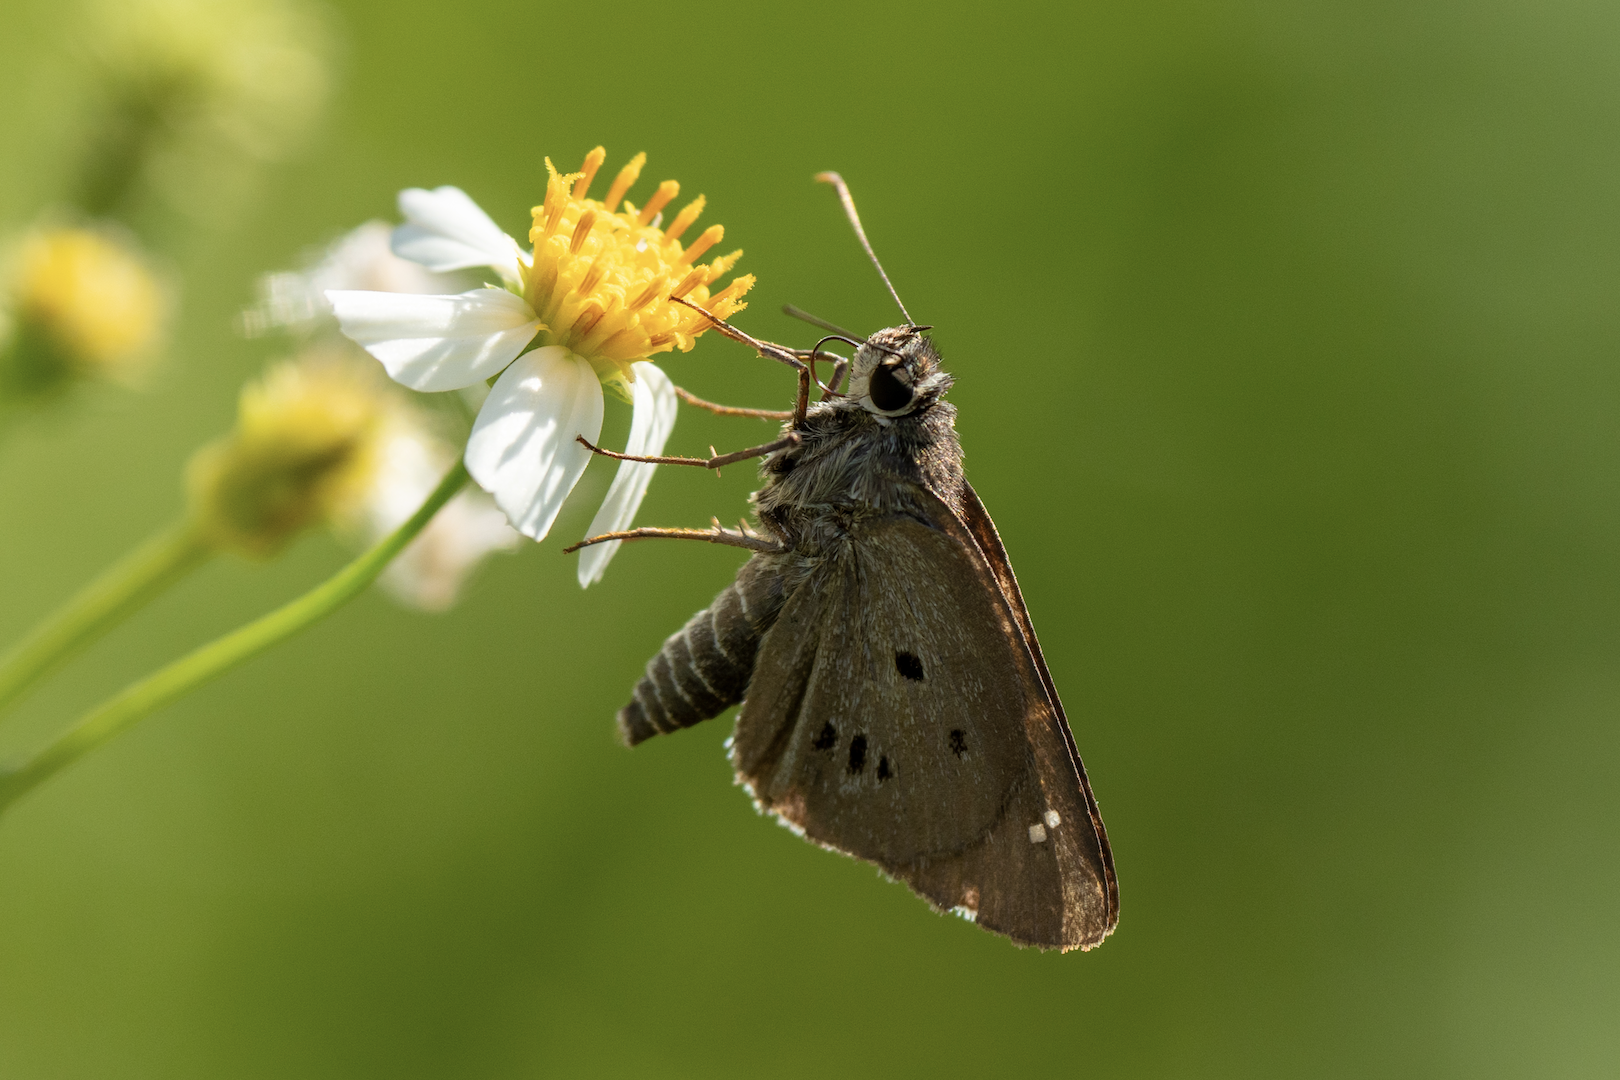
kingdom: Animalia
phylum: Arthropoda
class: Insecta
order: Lepidoptera
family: Hesperiidae
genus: Suastus
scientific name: Suastus gremius
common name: Indian palm bob
